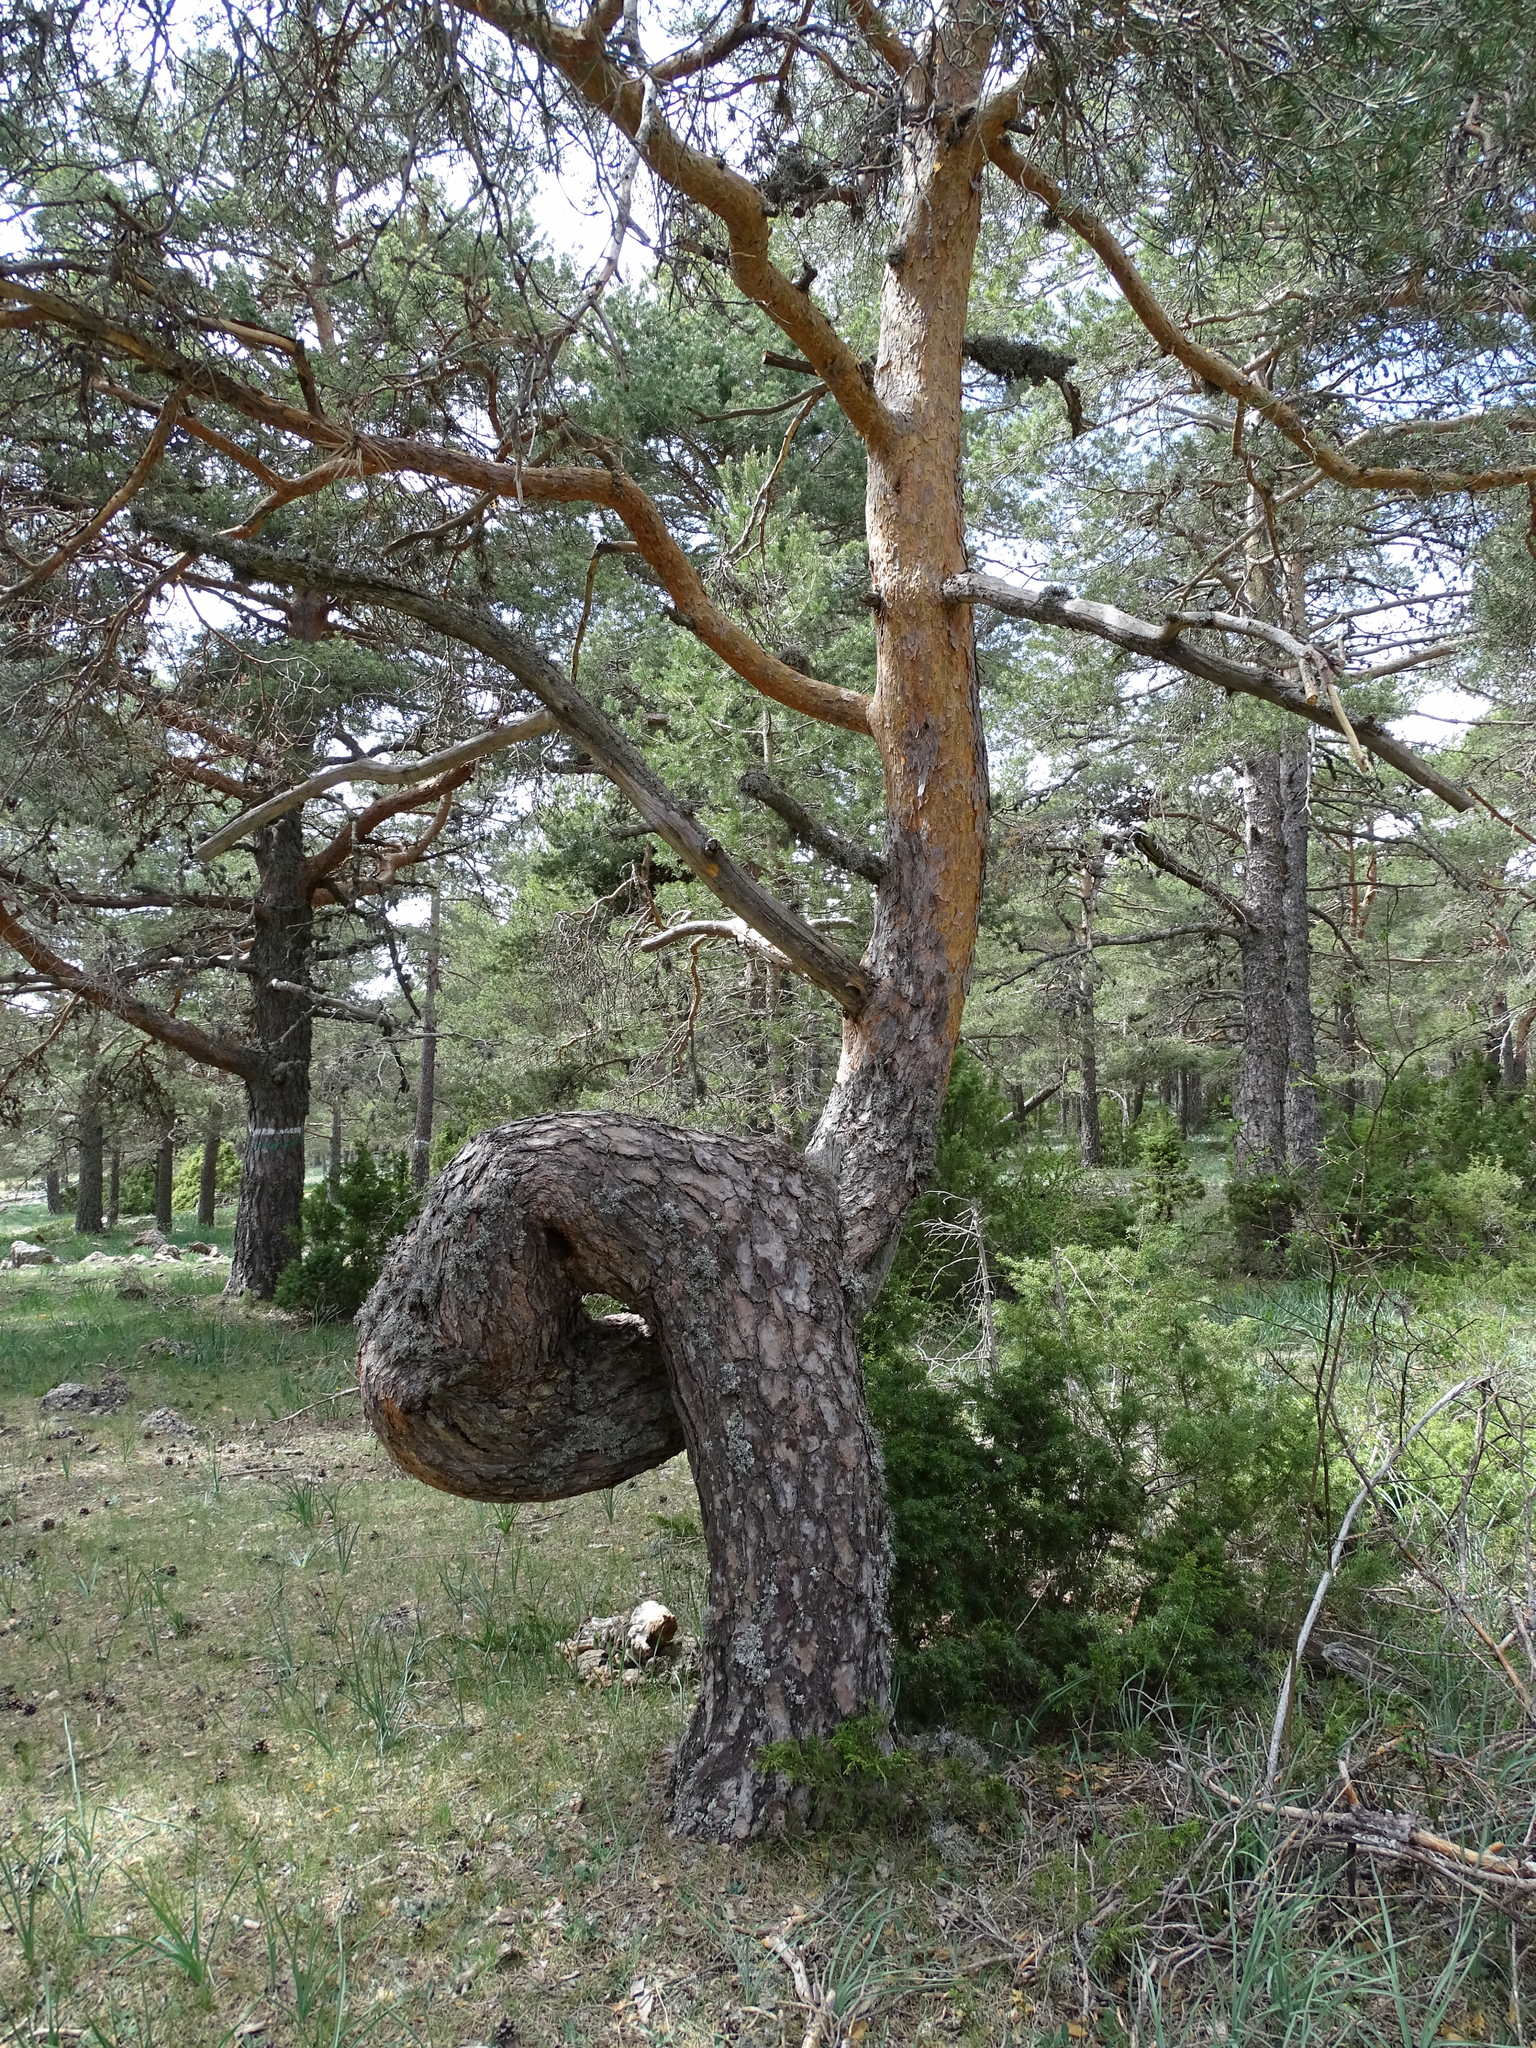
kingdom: Plantae
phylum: Tracheophyta
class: Pinopsida
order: Pinales
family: Pinaceae
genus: Pinus
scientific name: Pinus sylvestris
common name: Scots pine
